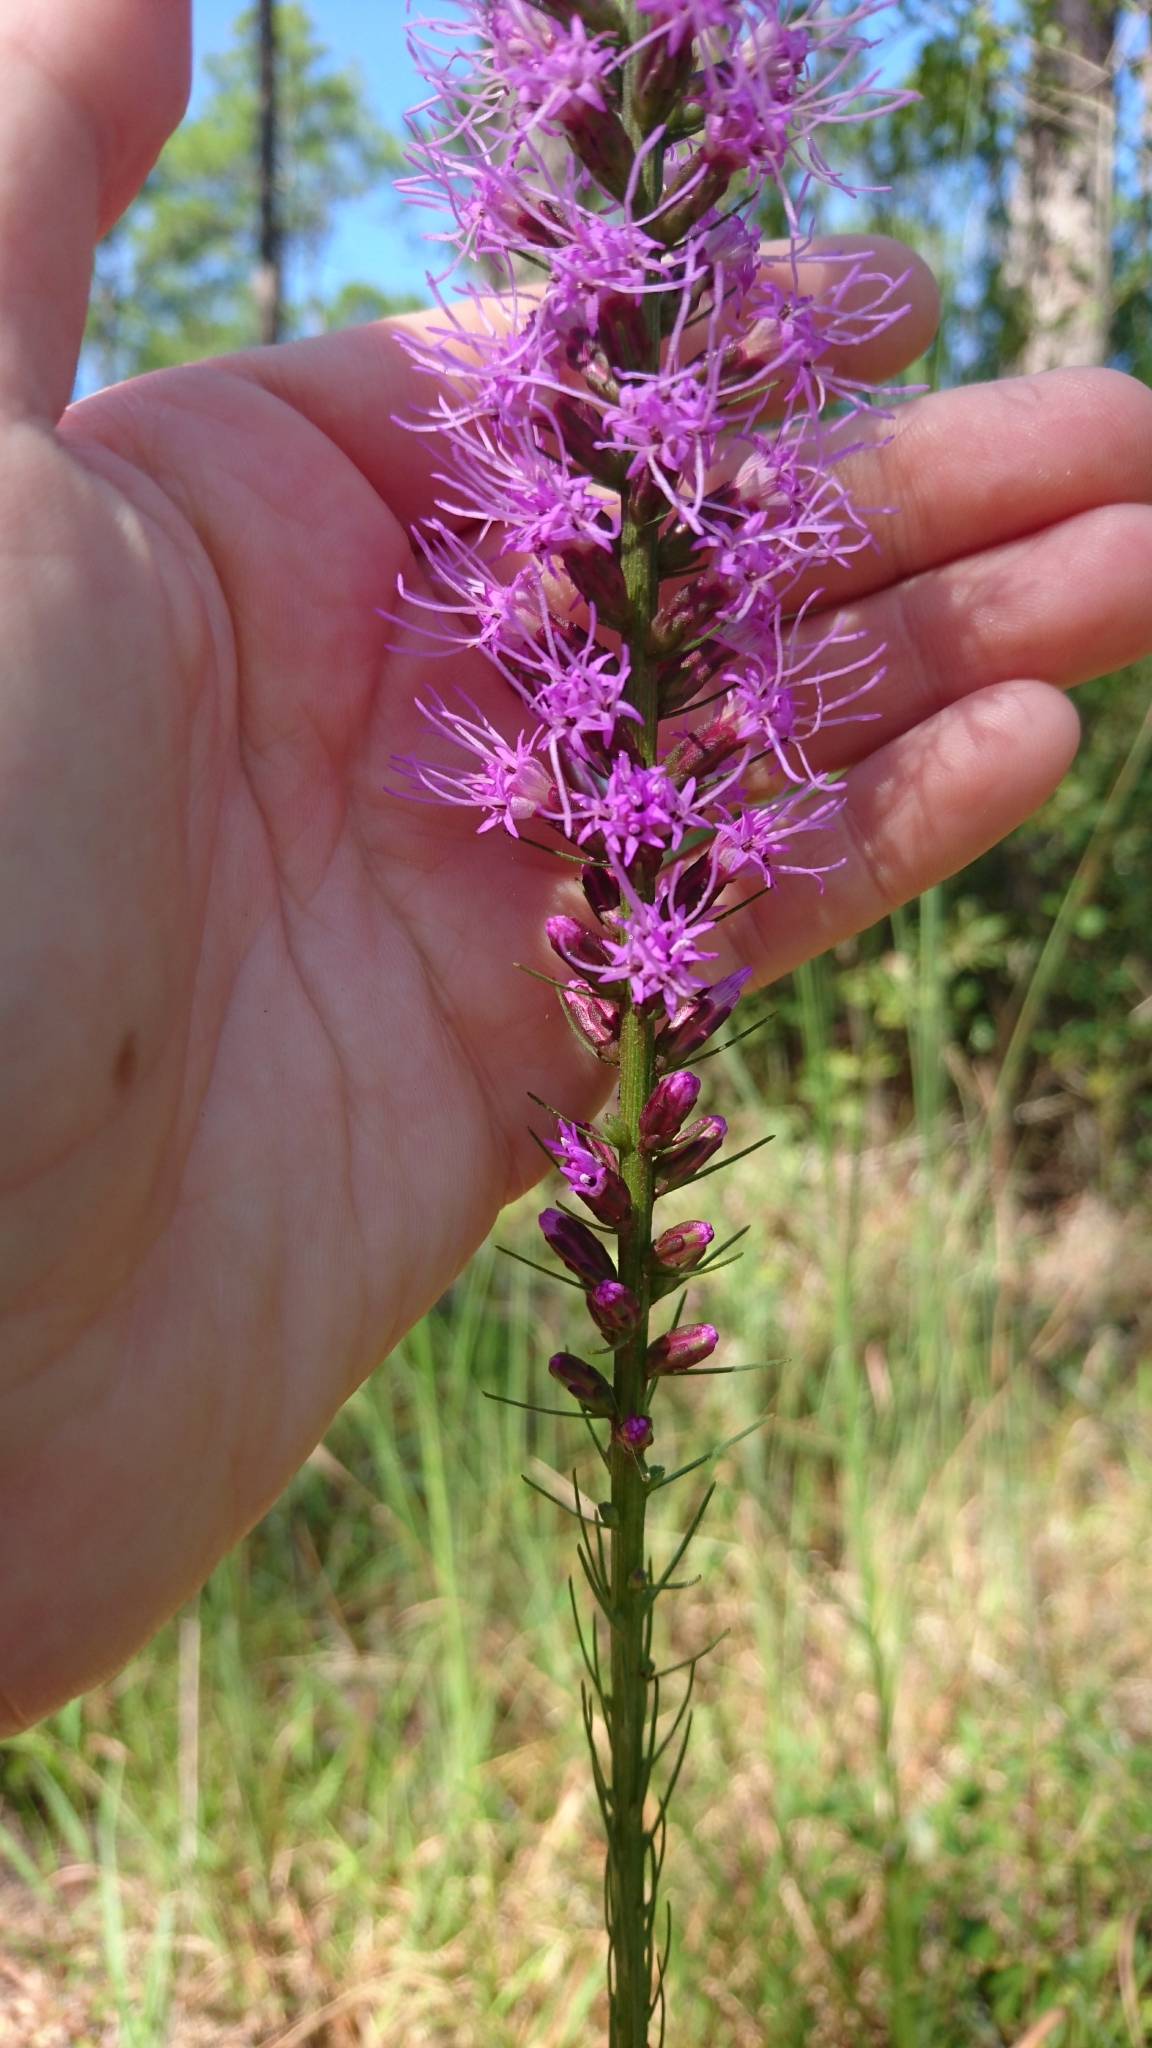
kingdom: Plantae
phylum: Tracheophyta
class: Magnoliopsida
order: Asterales
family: Asteraceae
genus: Liatris
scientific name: Liatris spicata
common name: Florist gayfeather
